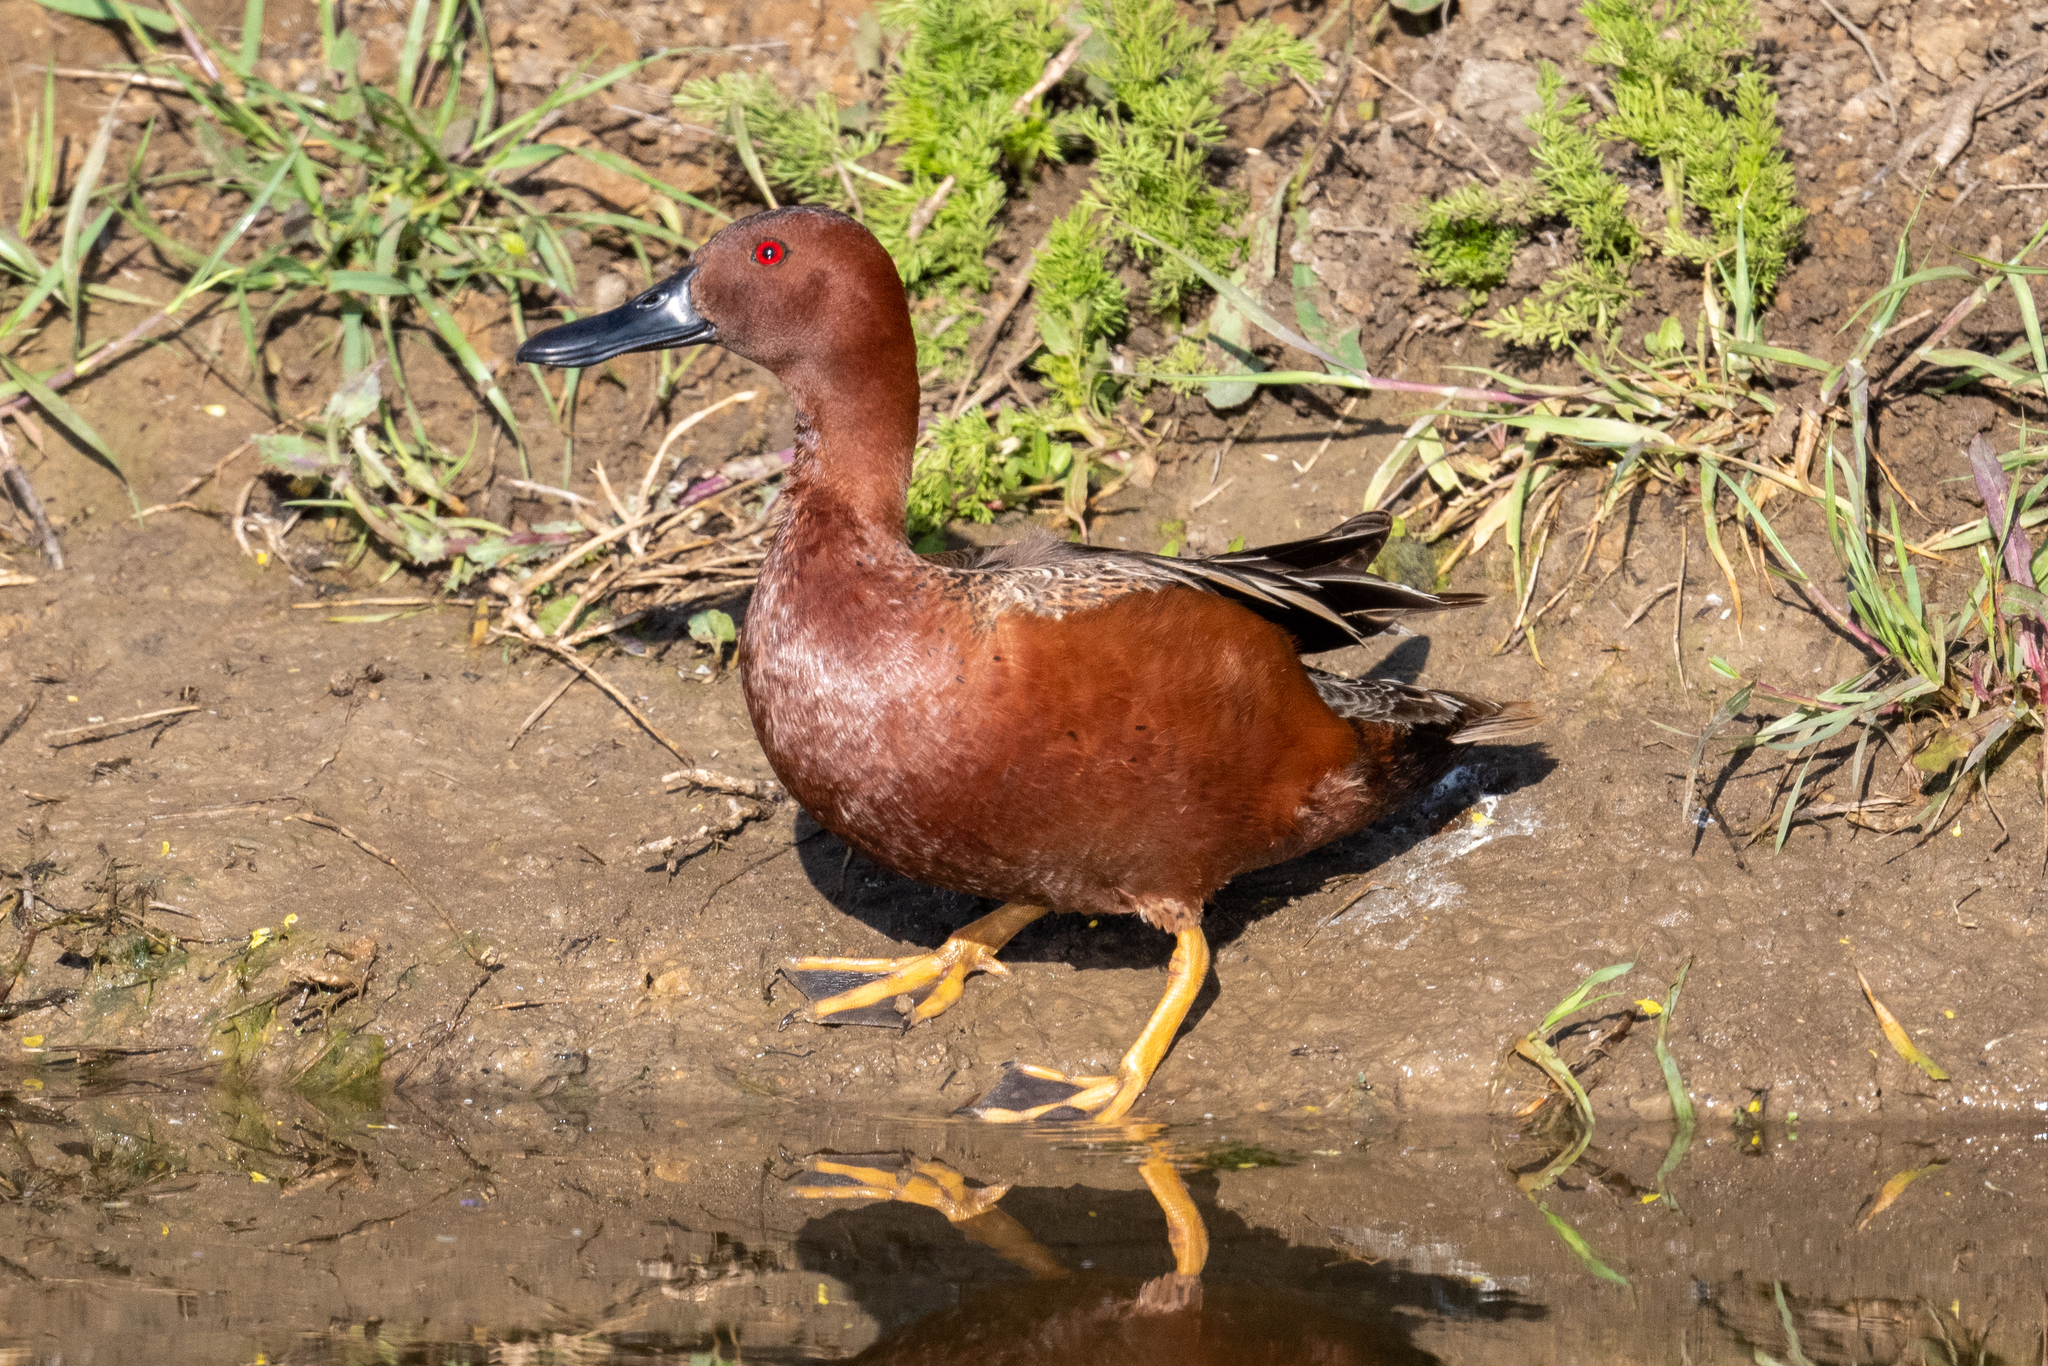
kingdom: Animalia
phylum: Chordata
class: Aves
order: Anseriformes
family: Anatidae
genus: Spatula
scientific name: Spatula cyanoptera
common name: Cinnamon teal
